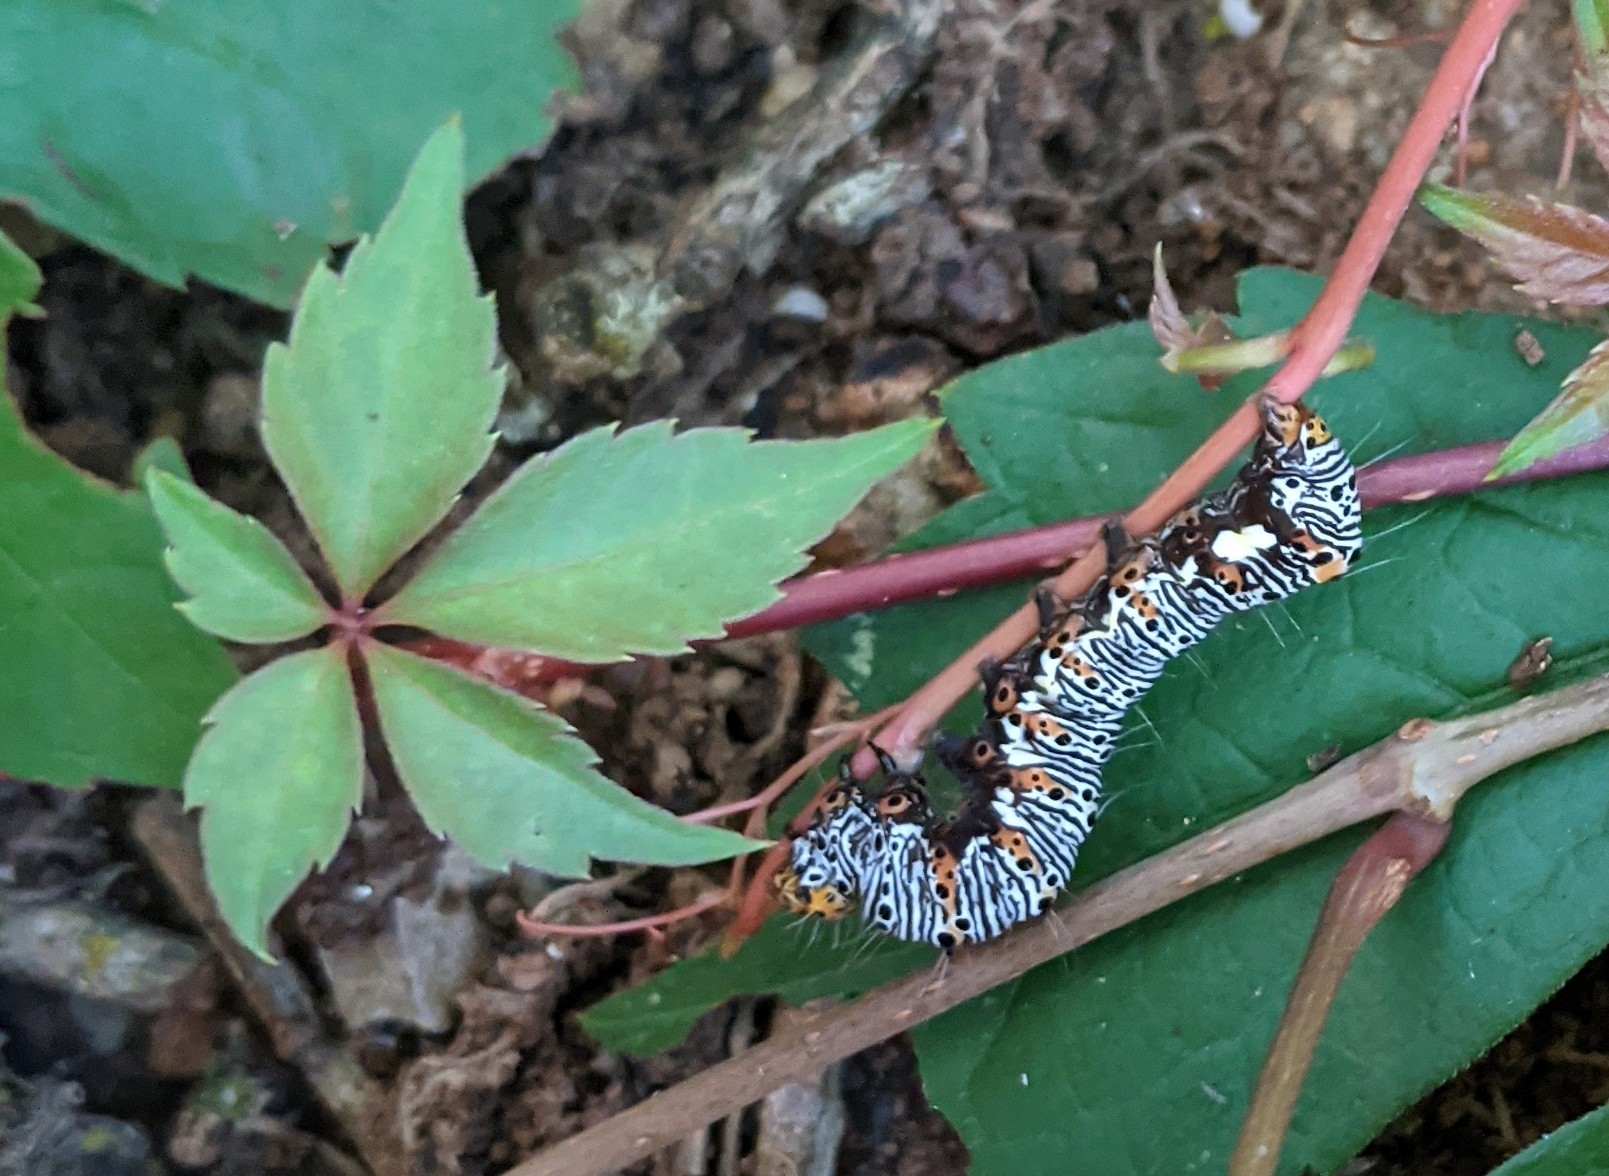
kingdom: Animalia
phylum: Arthropoda
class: Insecta
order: Lepidoptera
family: Noctuidae
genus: Alypia
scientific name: Alypia octomaculata
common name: Eight-spotted forester
